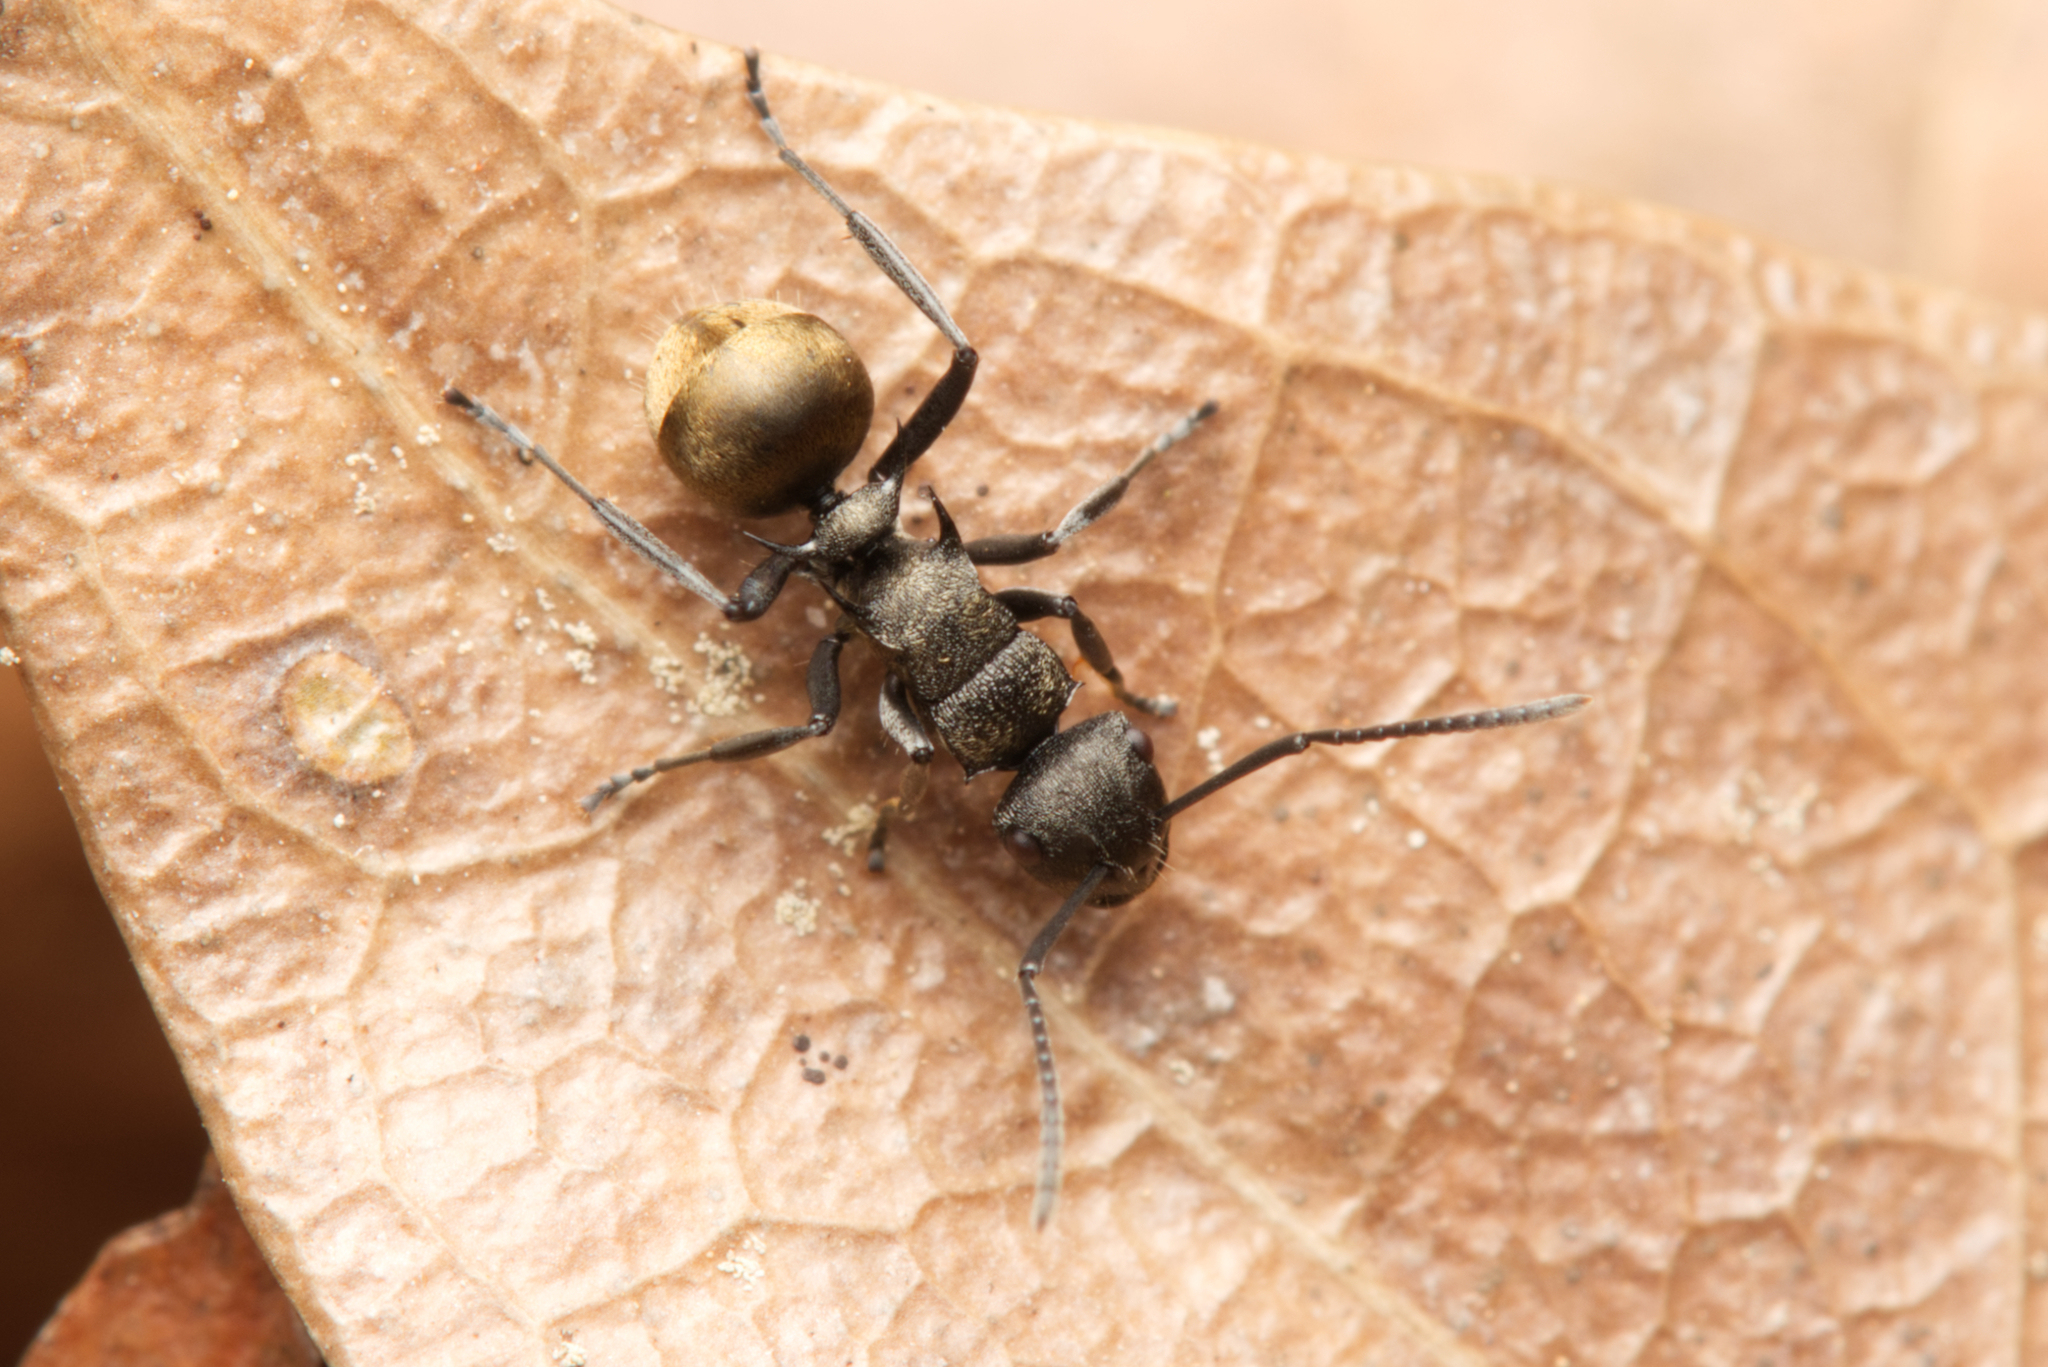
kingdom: Animalia
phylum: Arthropoda
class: Insecta
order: Hymenoptera
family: Formicidae
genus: Polyrhachis
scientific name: Polyrhachis mjobergi
